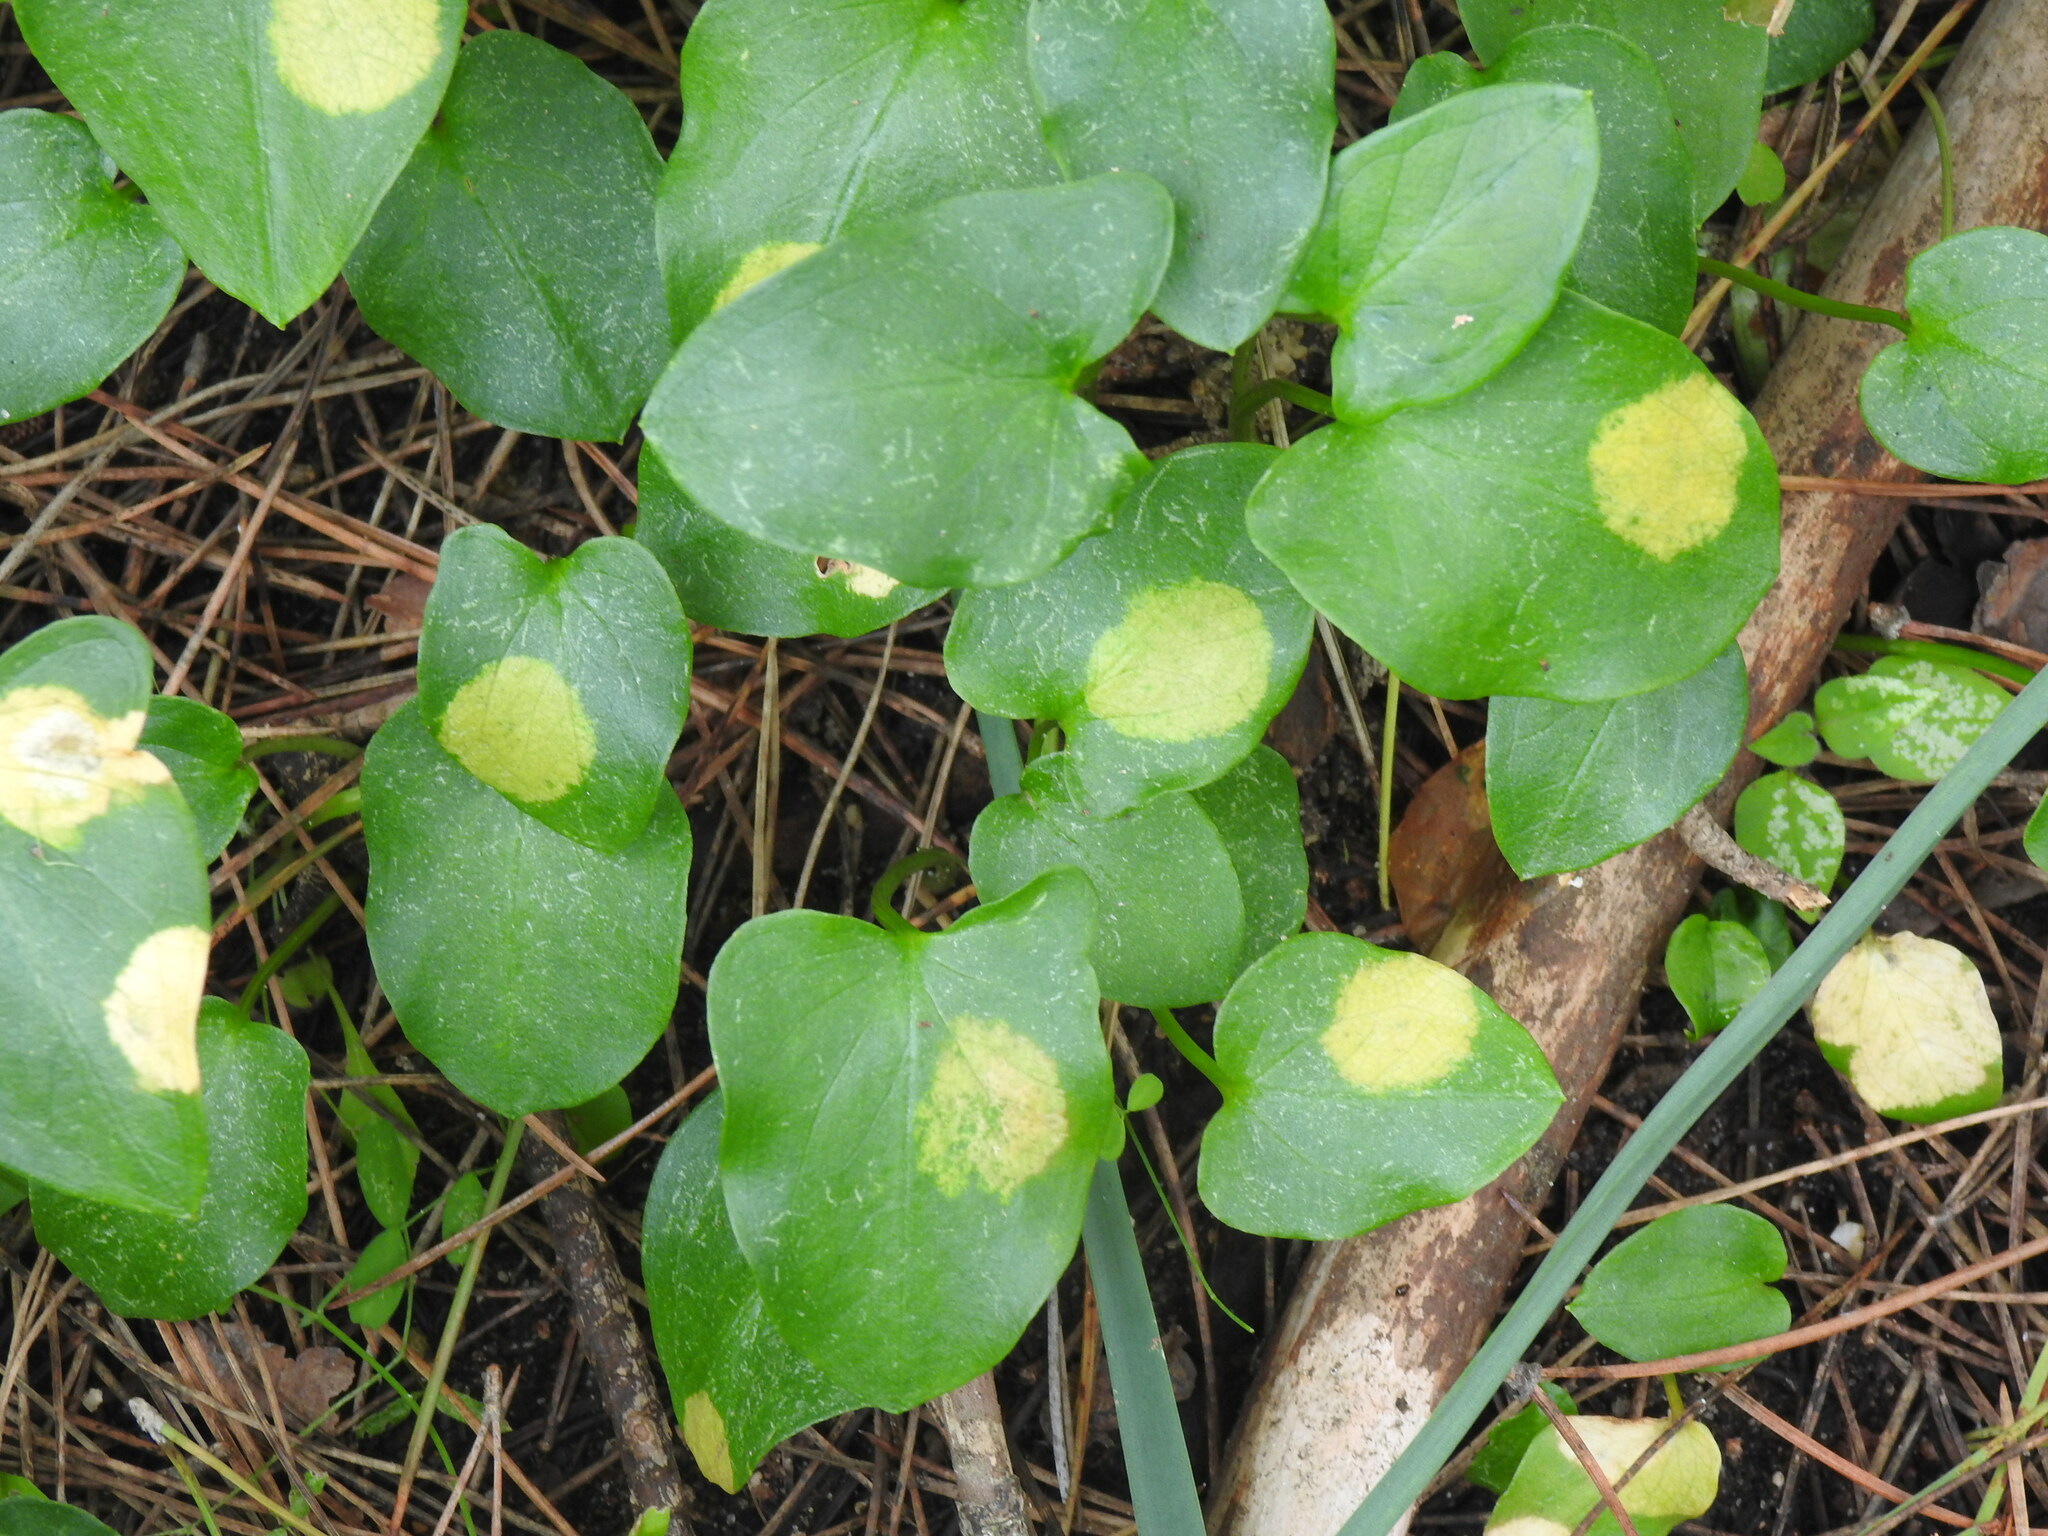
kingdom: Chromista
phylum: Ochrophyta
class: Xanthophyceae
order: Phyllosiphonales
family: Phyllosiphonaceae
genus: Phyllosiphon
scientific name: Phyllosiphon arisari
